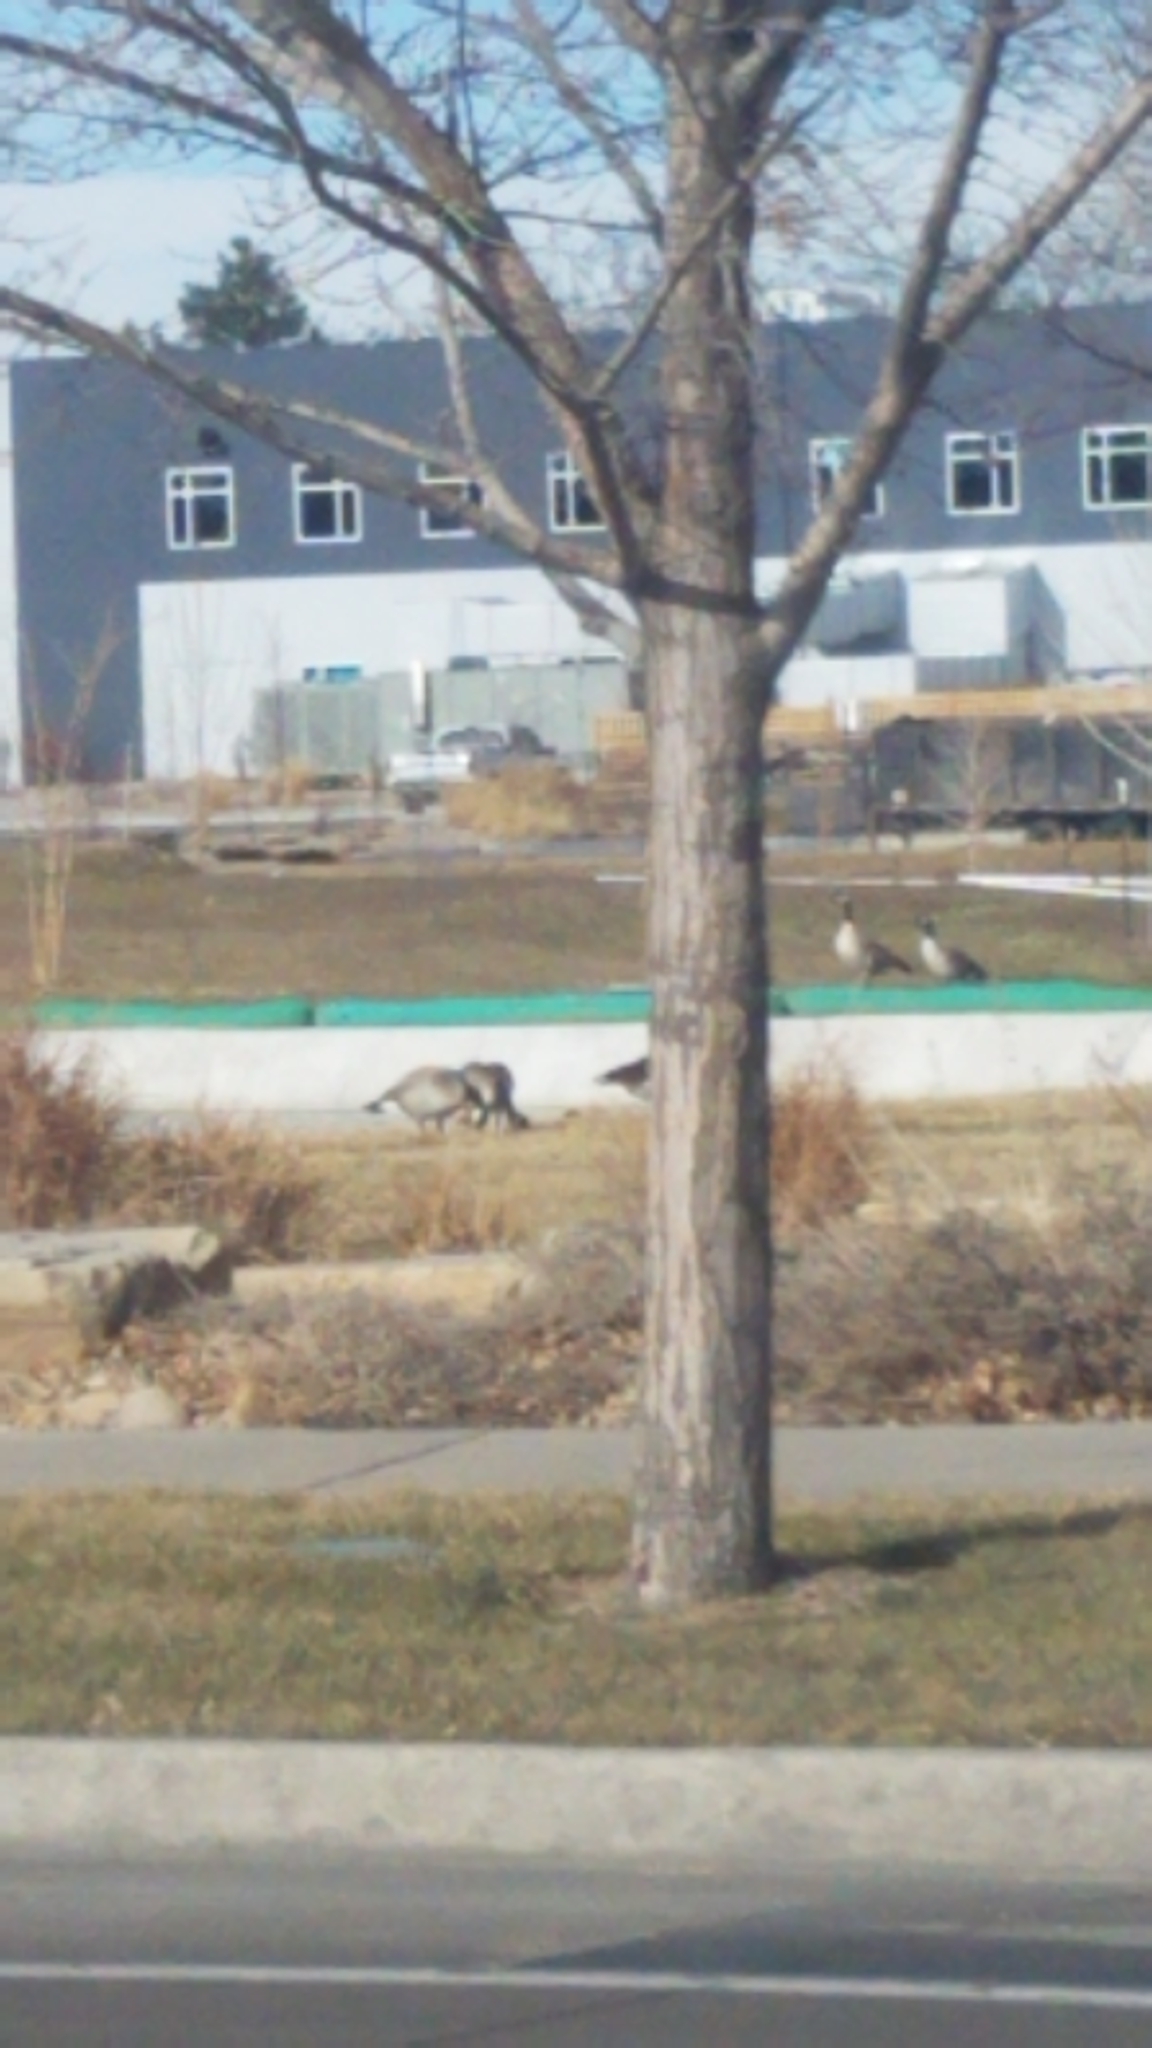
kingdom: Animalia
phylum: Chordata
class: Aves
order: Anseriformes
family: Anatidae
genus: Branta
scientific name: Branta canadensis
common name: Canada goose
